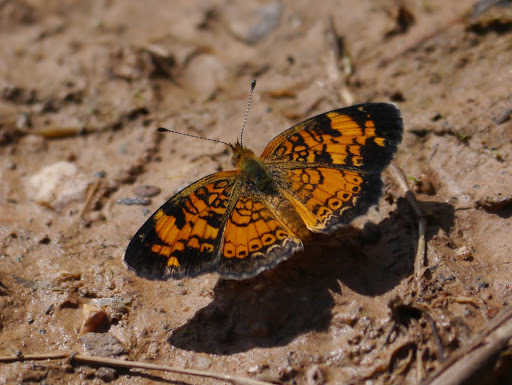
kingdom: Animalia
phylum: Arthropoda
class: Insecta
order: Lepidoptera
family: Nymphalidae
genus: Phyciodes
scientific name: Phyciodes tharos
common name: Pearl crescent
